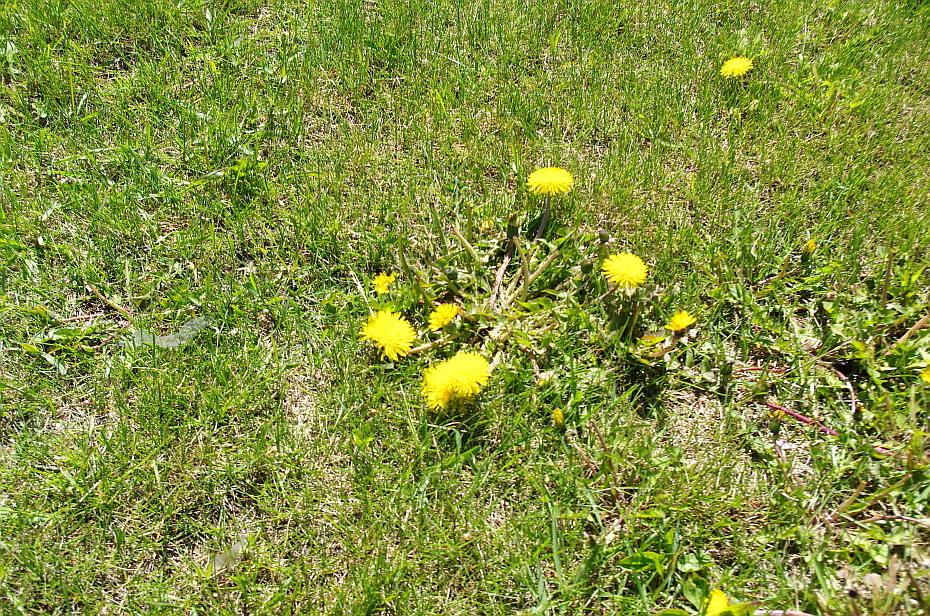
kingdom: Plantae
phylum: Tracheophyta
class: Magnoliopsida
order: Asterales
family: Asteraceae
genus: Taraxacum
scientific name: Taraxacum officinale
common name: Common dandelion
